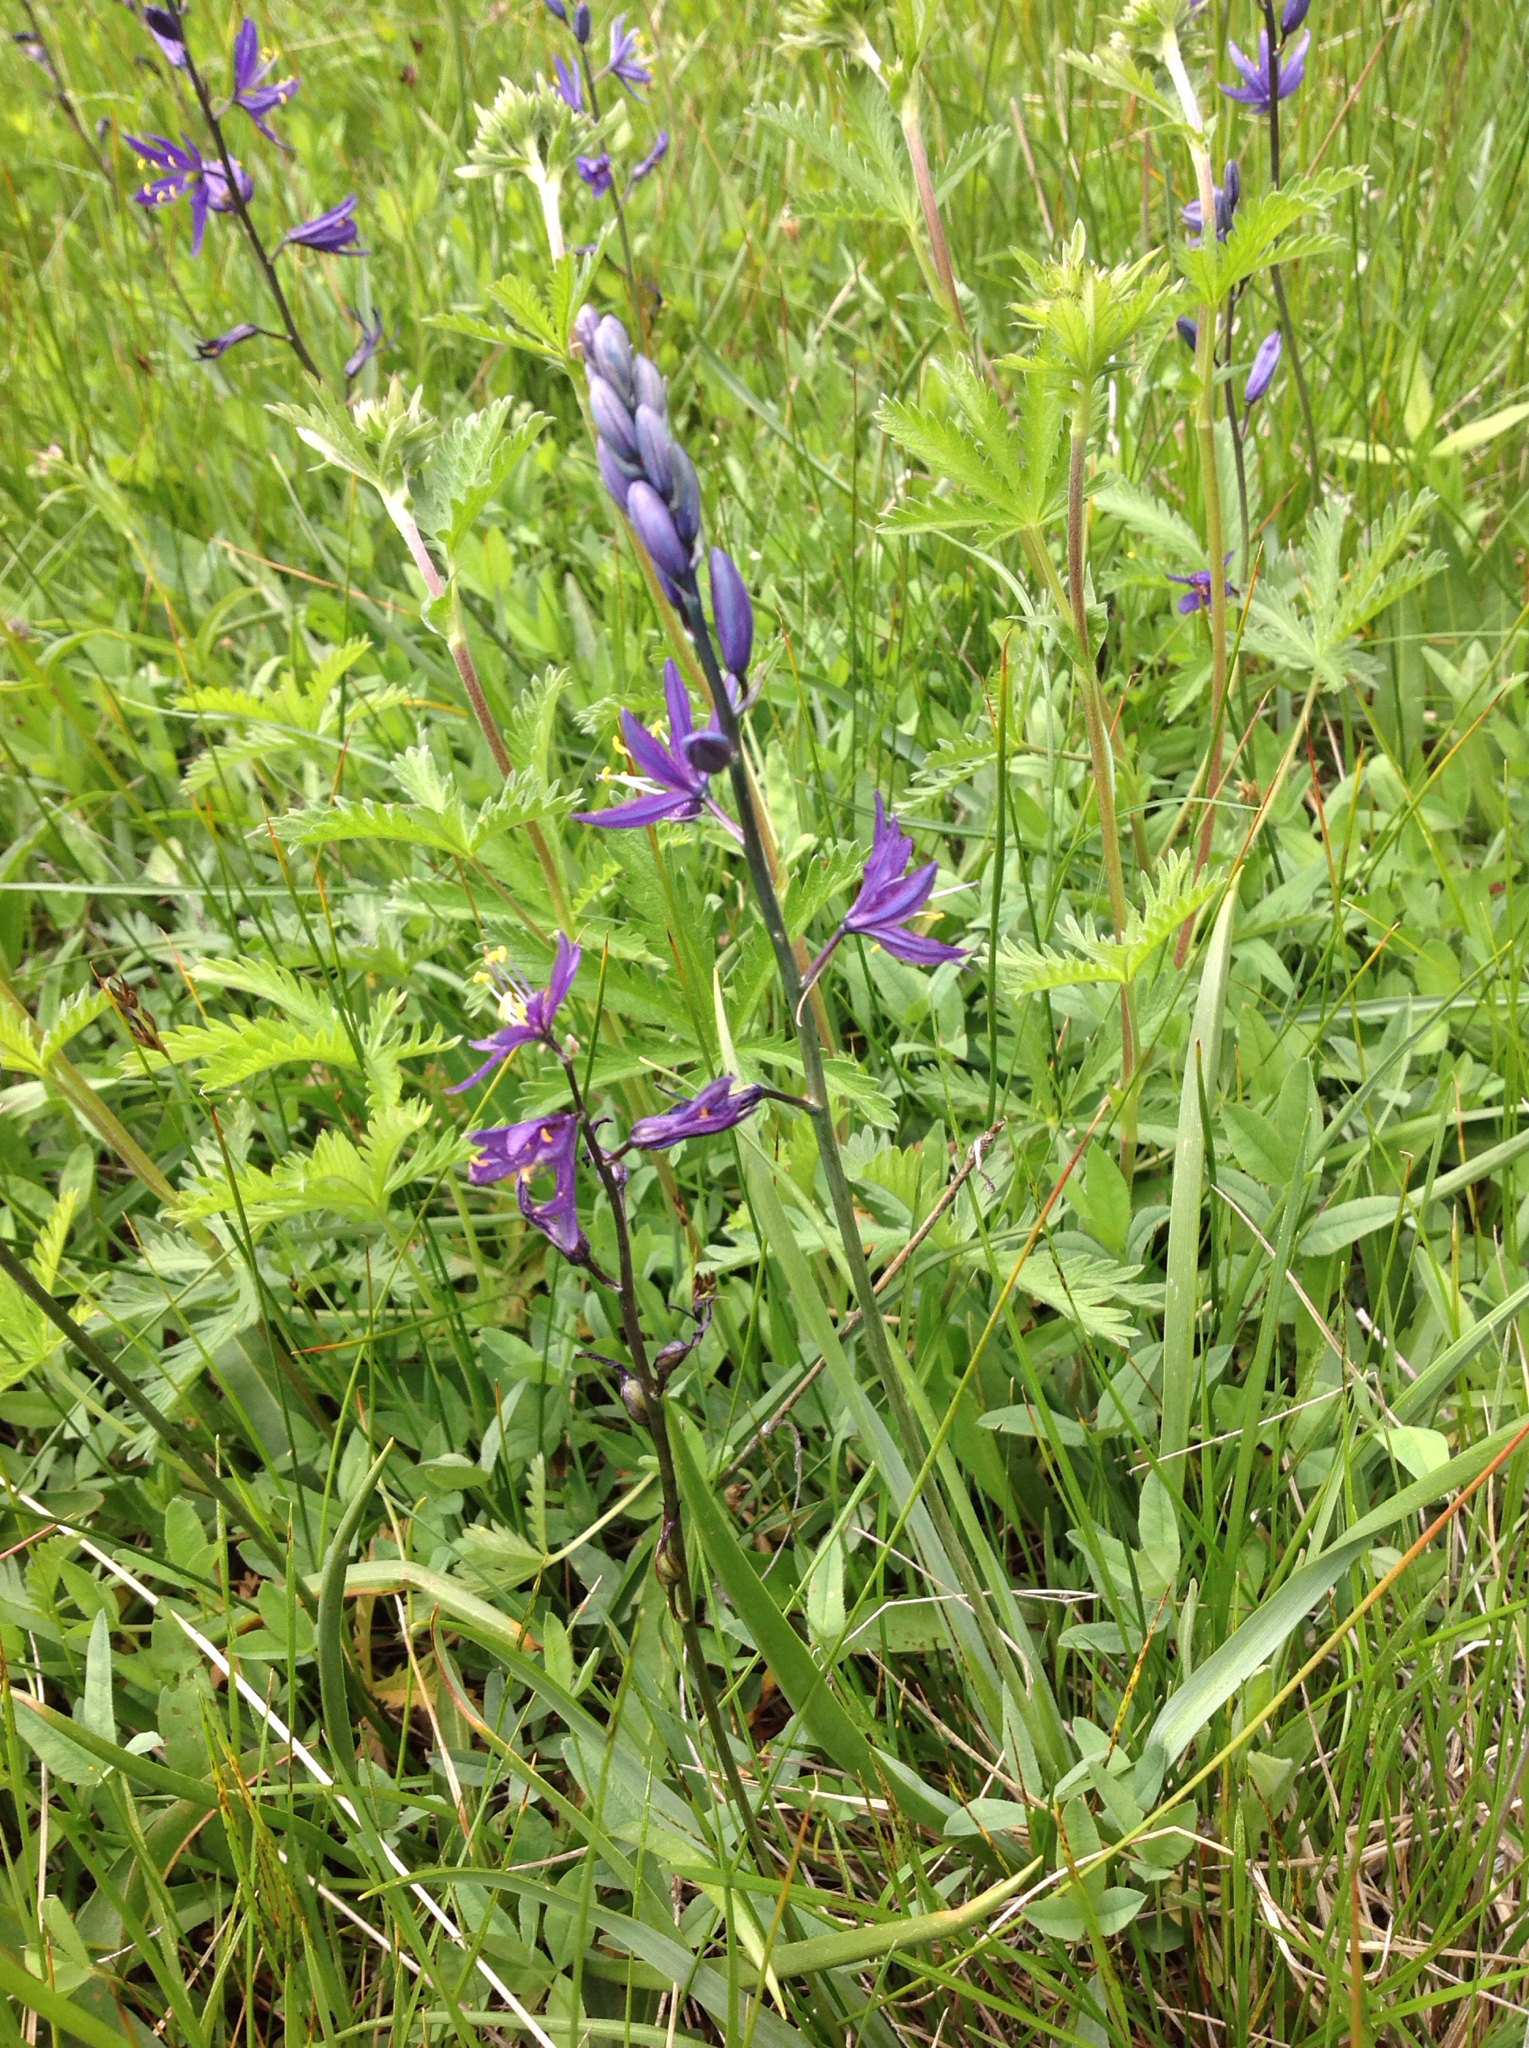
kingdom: Plantae
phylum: Tracheophyta
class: Liliopsida
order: Asparagales
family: Asparagaceae
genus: Camassia
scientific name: Camassia quamash
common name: Common camas
